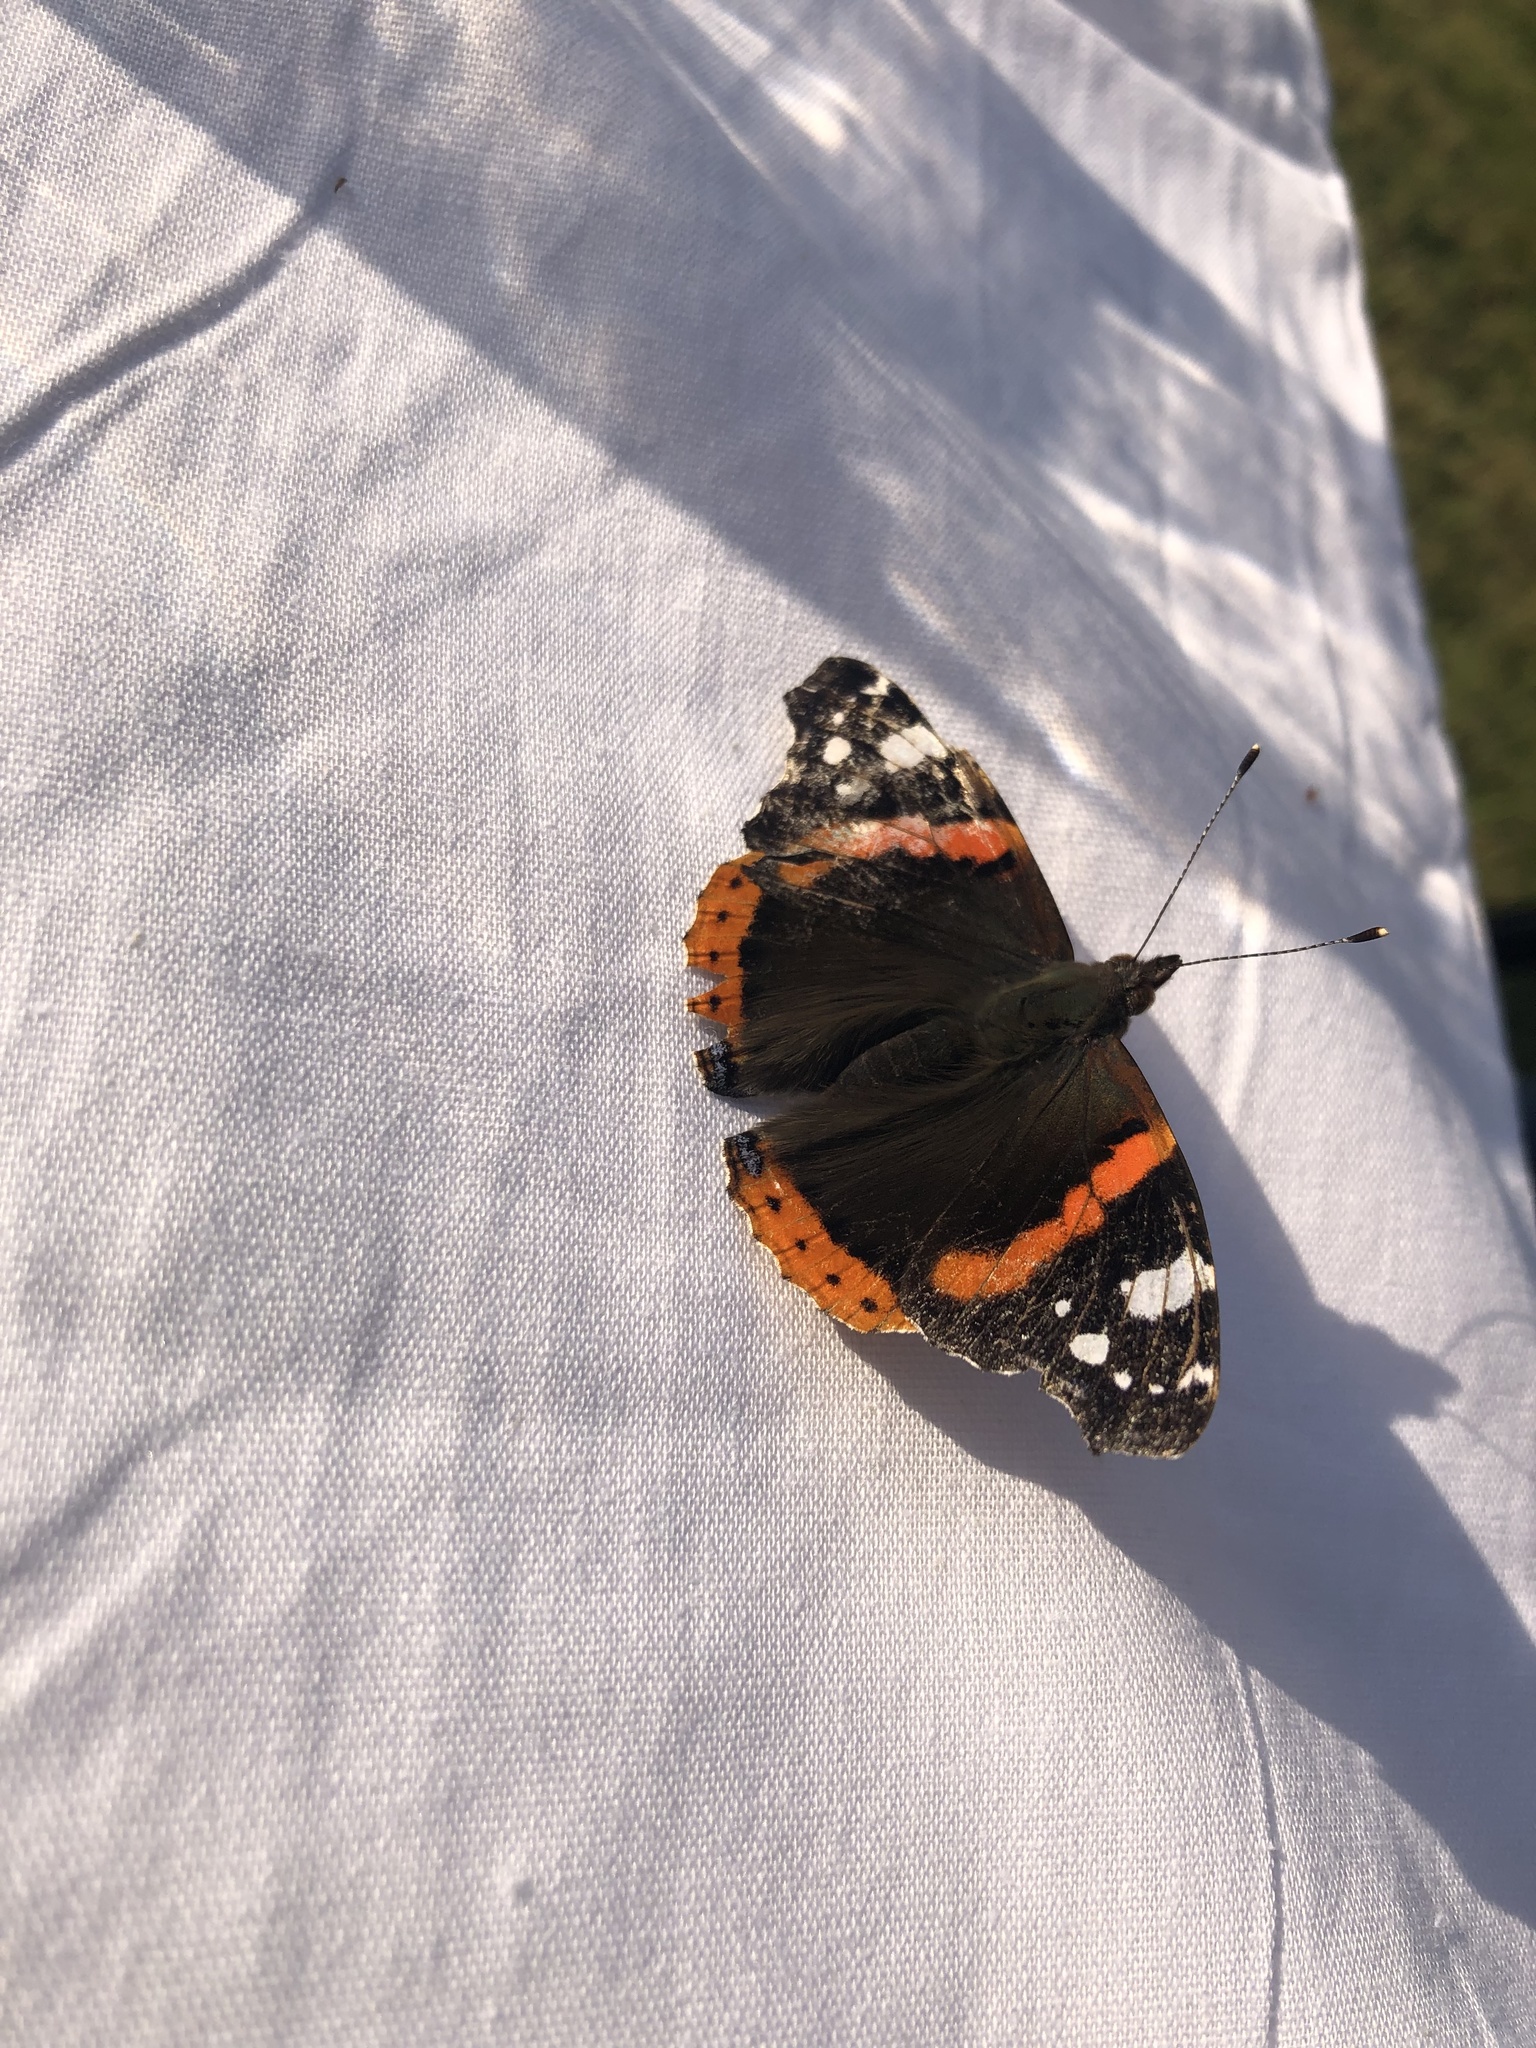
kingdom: Animalia
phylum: Arthropoda
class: Insecta
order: Lepidoptera
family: Nymphalidae
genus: Vanessa
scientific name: Vanessa atalanta
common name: Red admiral
